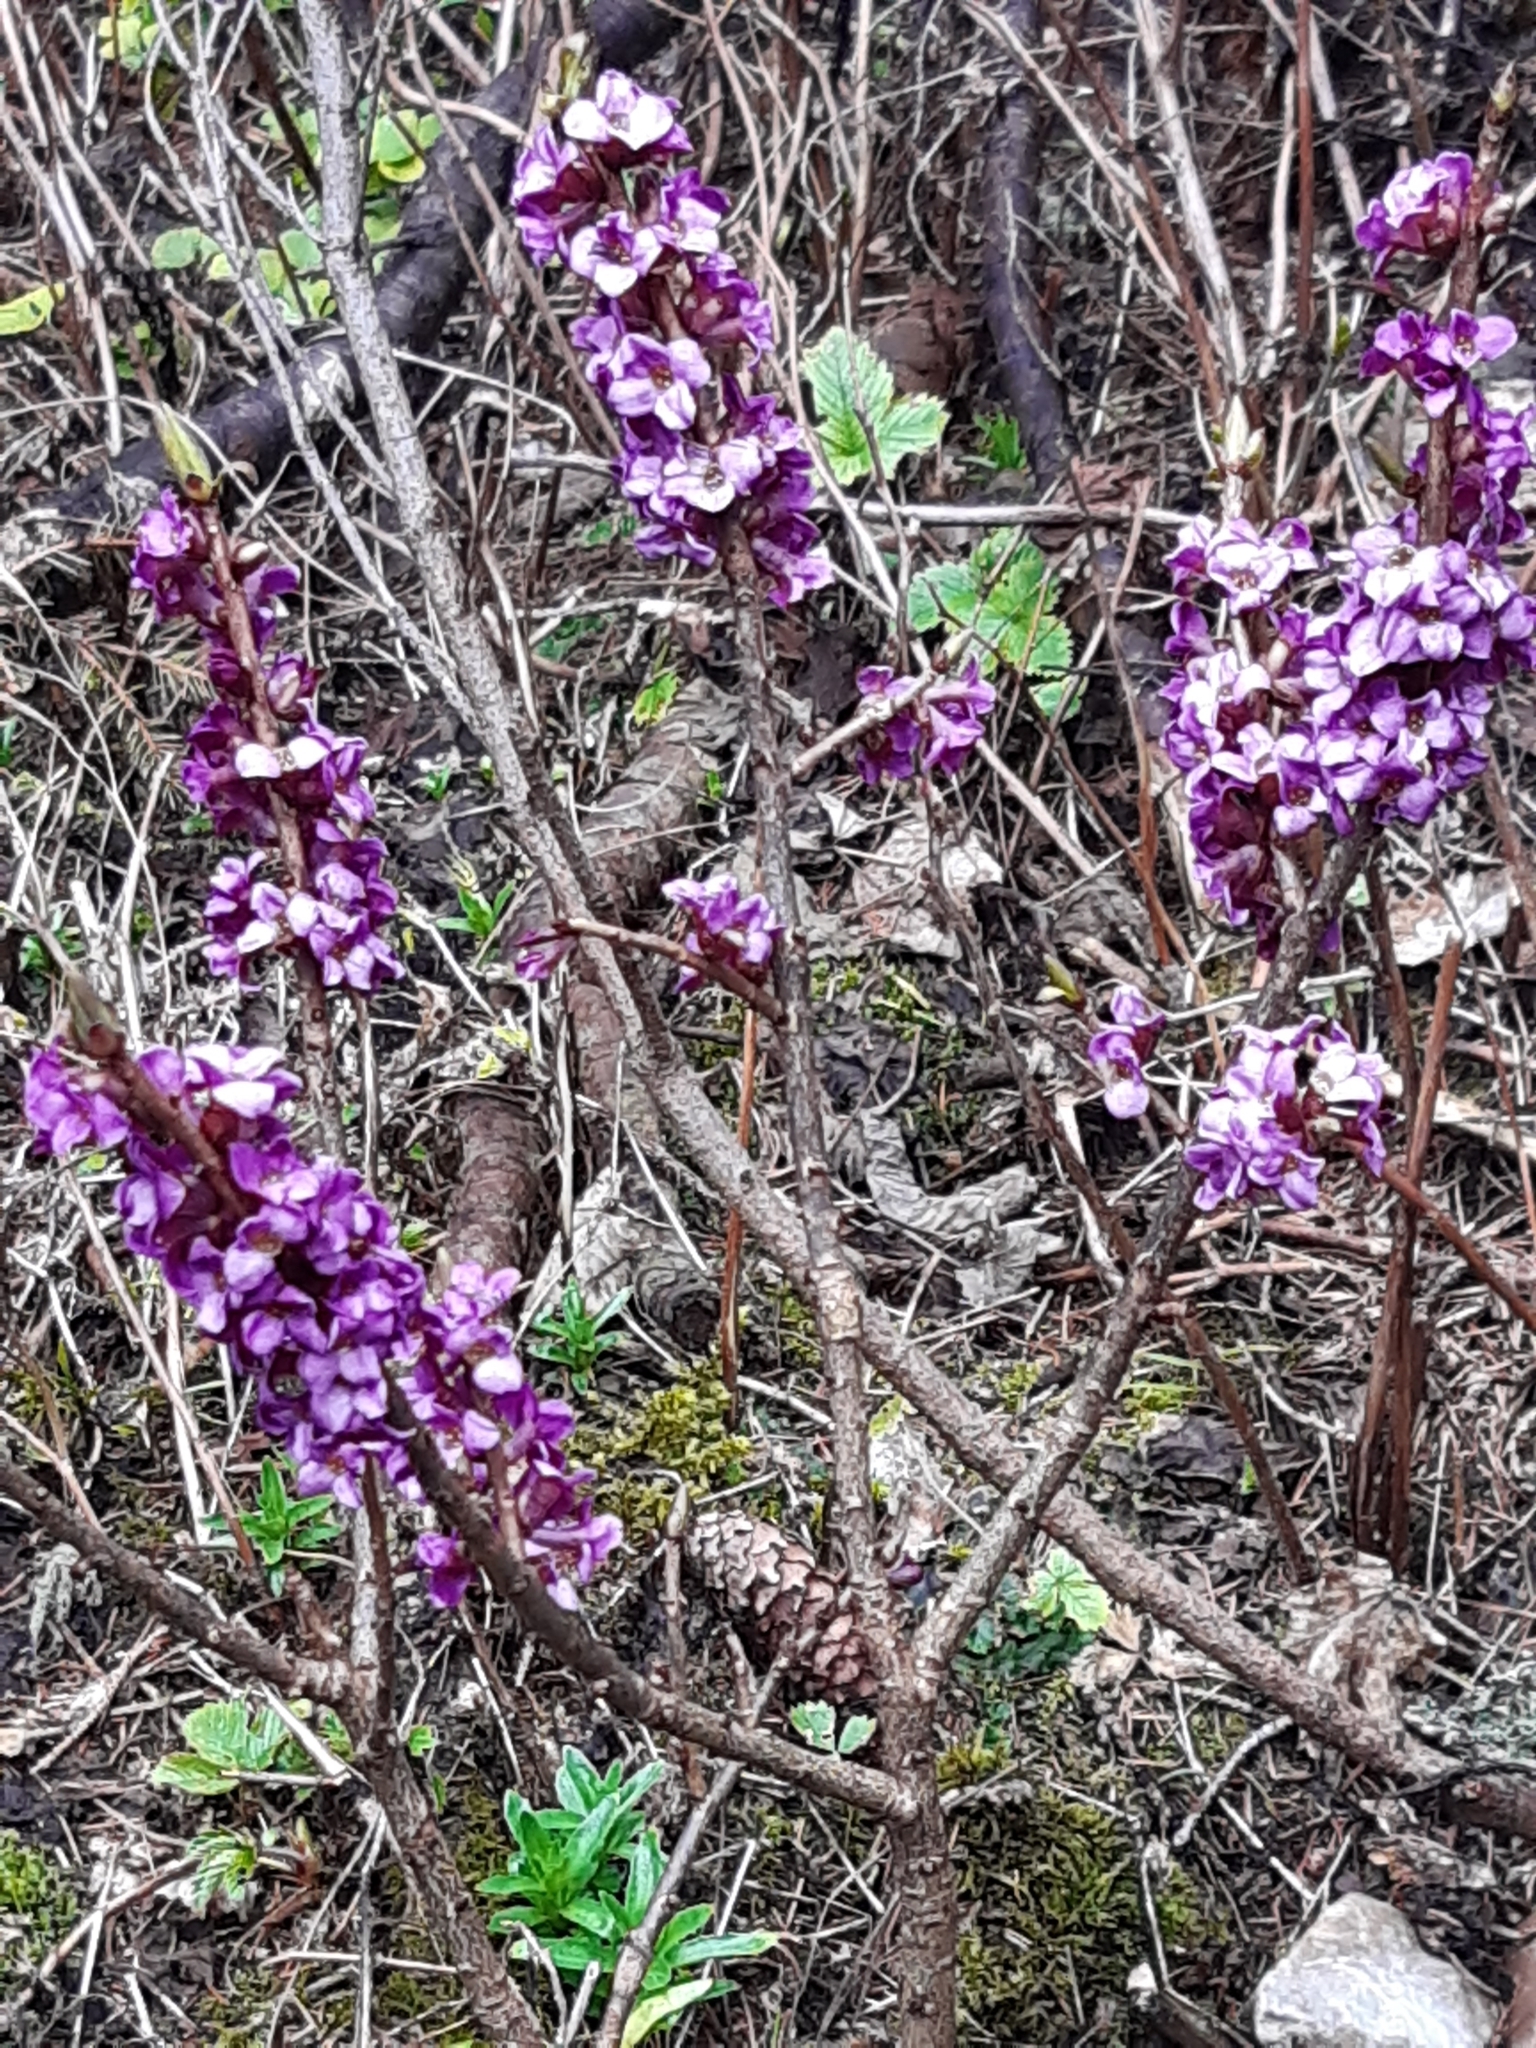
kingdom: Plantae
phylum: Tracheophyta
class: Magnoliopsida
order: Malvales
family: Thymelaeaceae
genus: Daphne
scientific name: Daphne mezereum
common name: Mezereon
